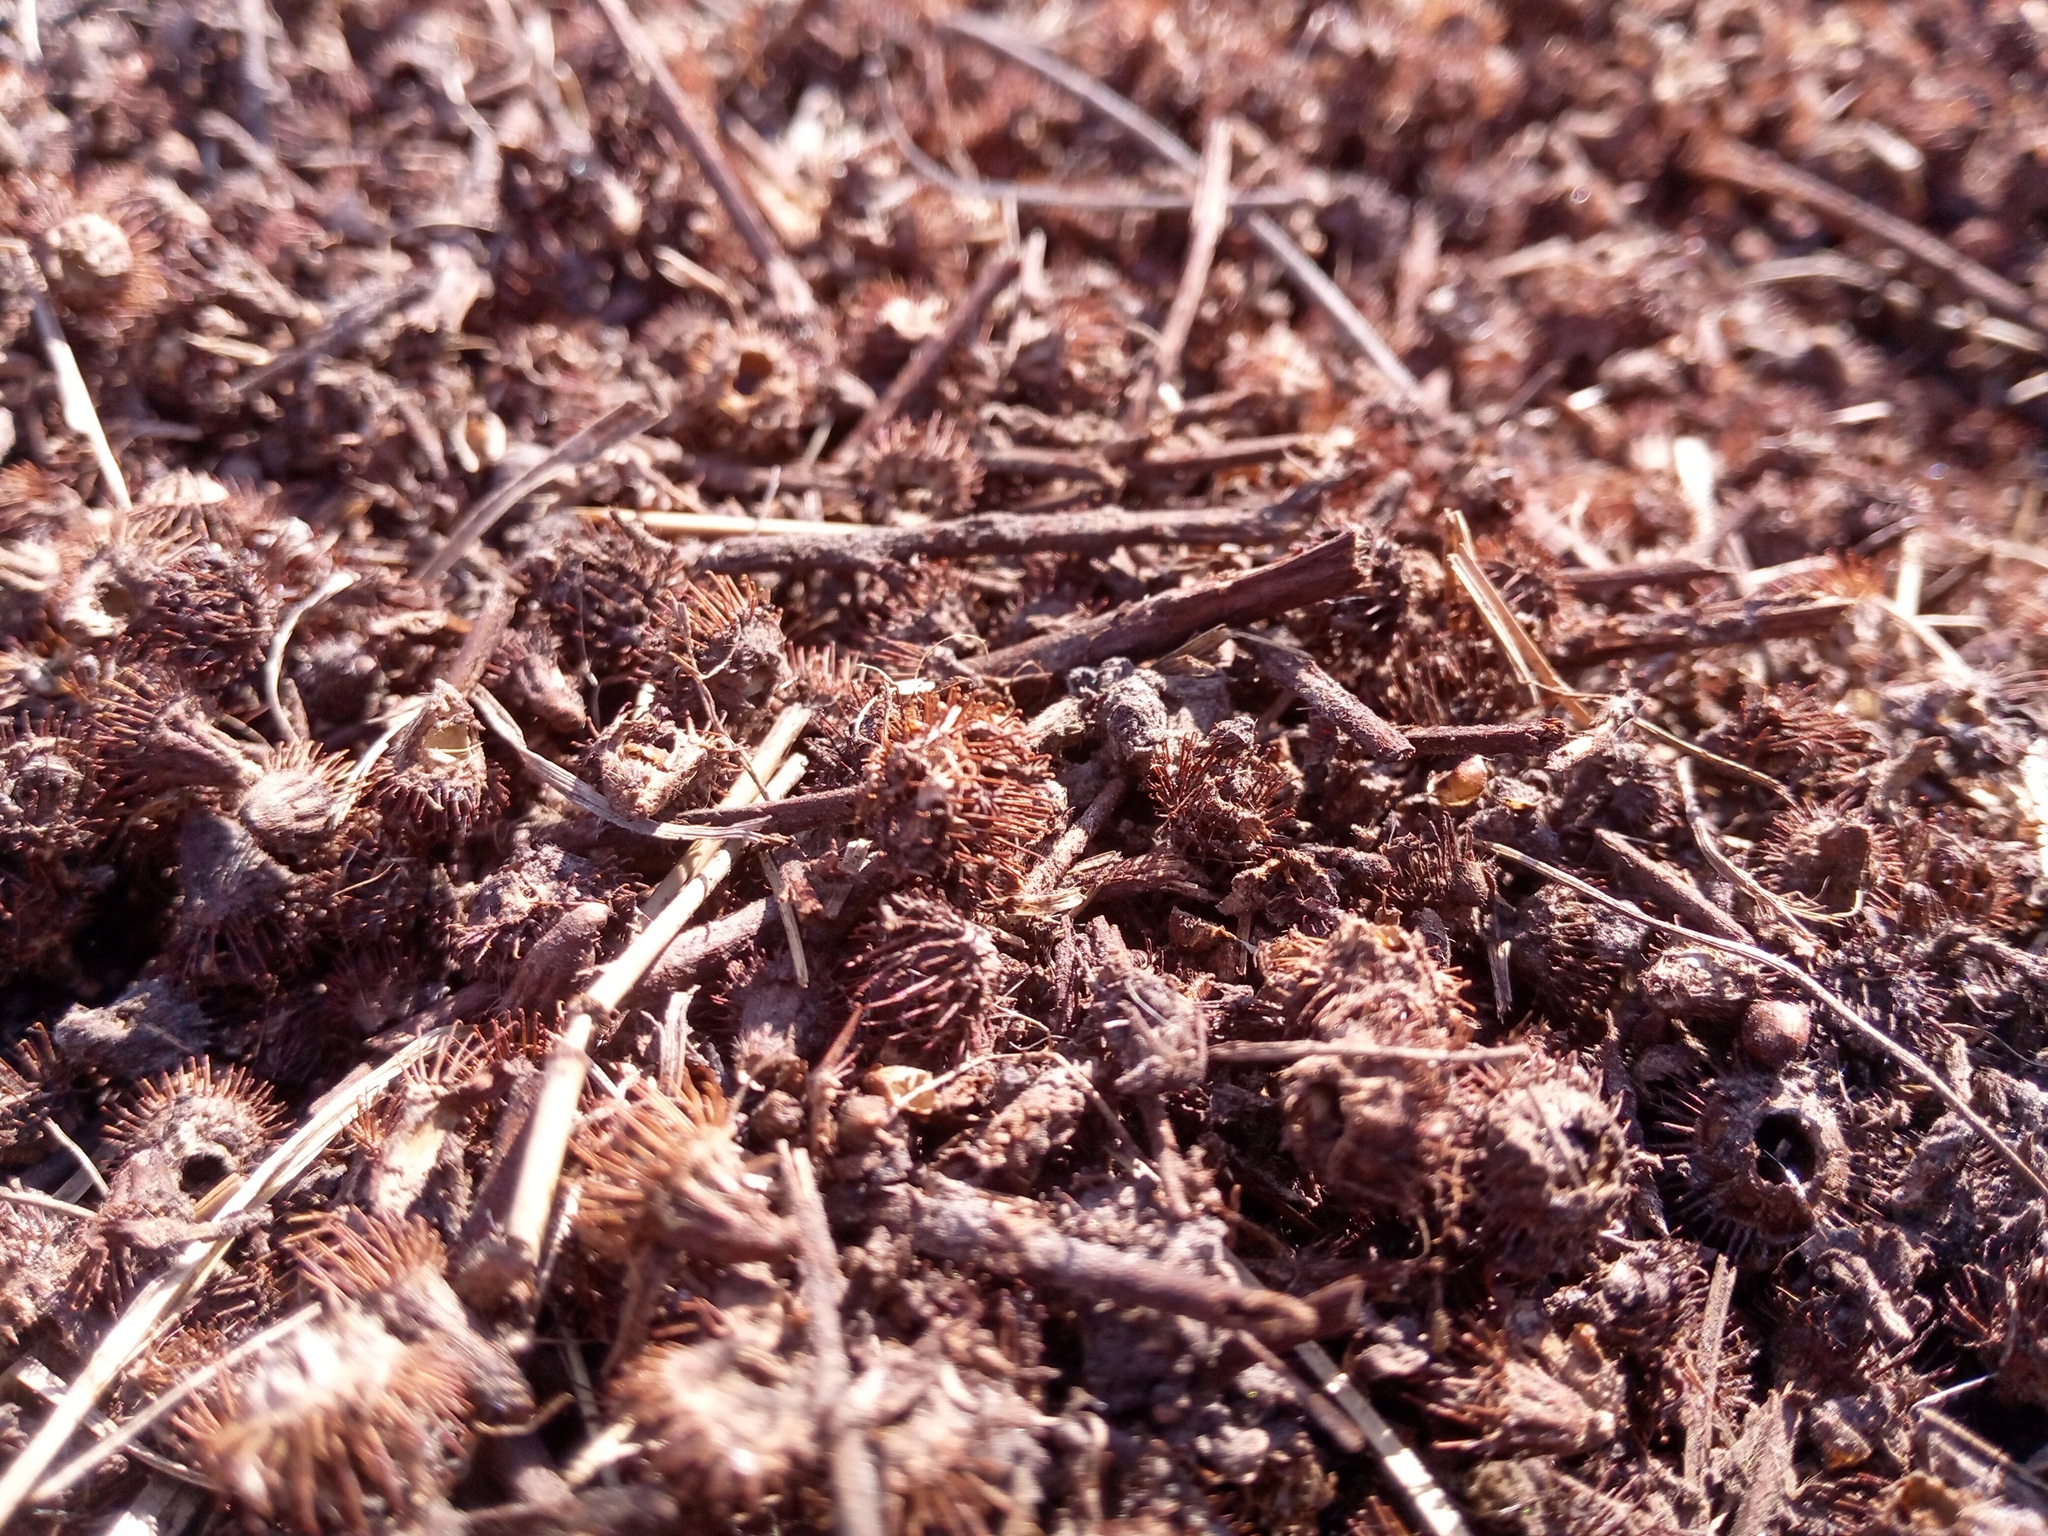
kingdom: Animalia
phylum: Chordata
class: Mammalia
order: Rodentia
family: Muridae
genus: Mus
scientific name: Mus spicilegus
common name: Mound-building mouse
